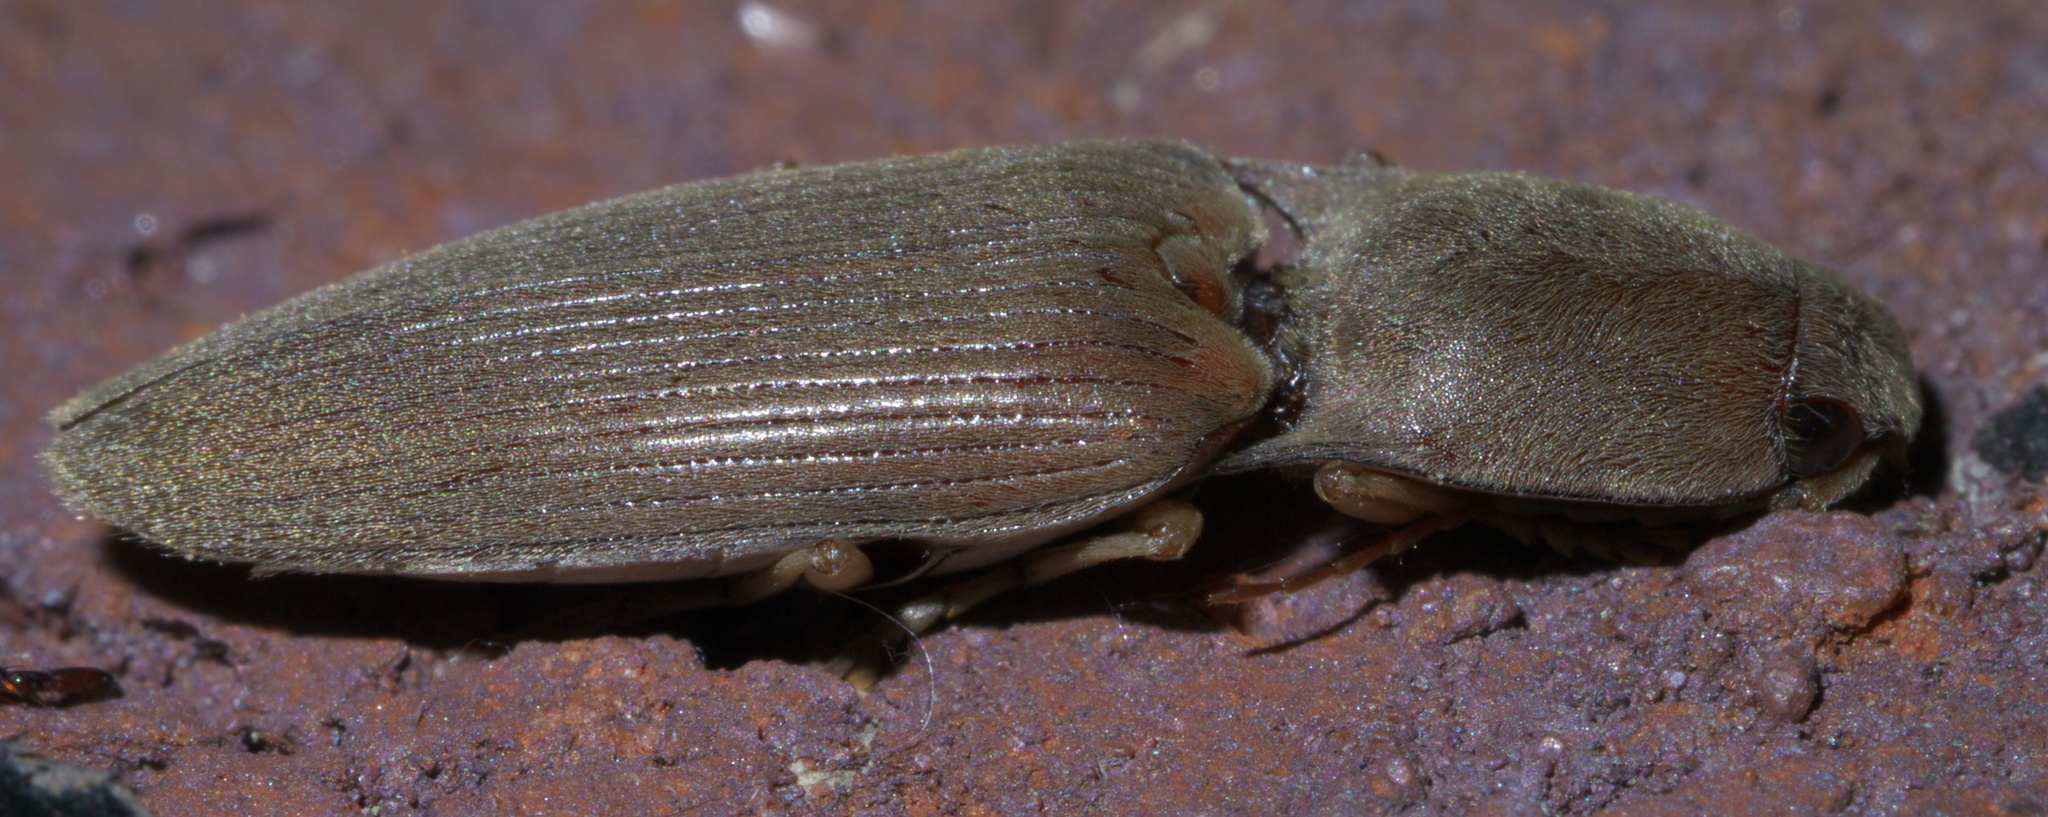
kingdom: Animalia
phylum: Arthropoda
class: Insecta
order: Coleoptera
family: Elateridae
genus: Monocrepidius
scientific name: Monocrepidius lividus
